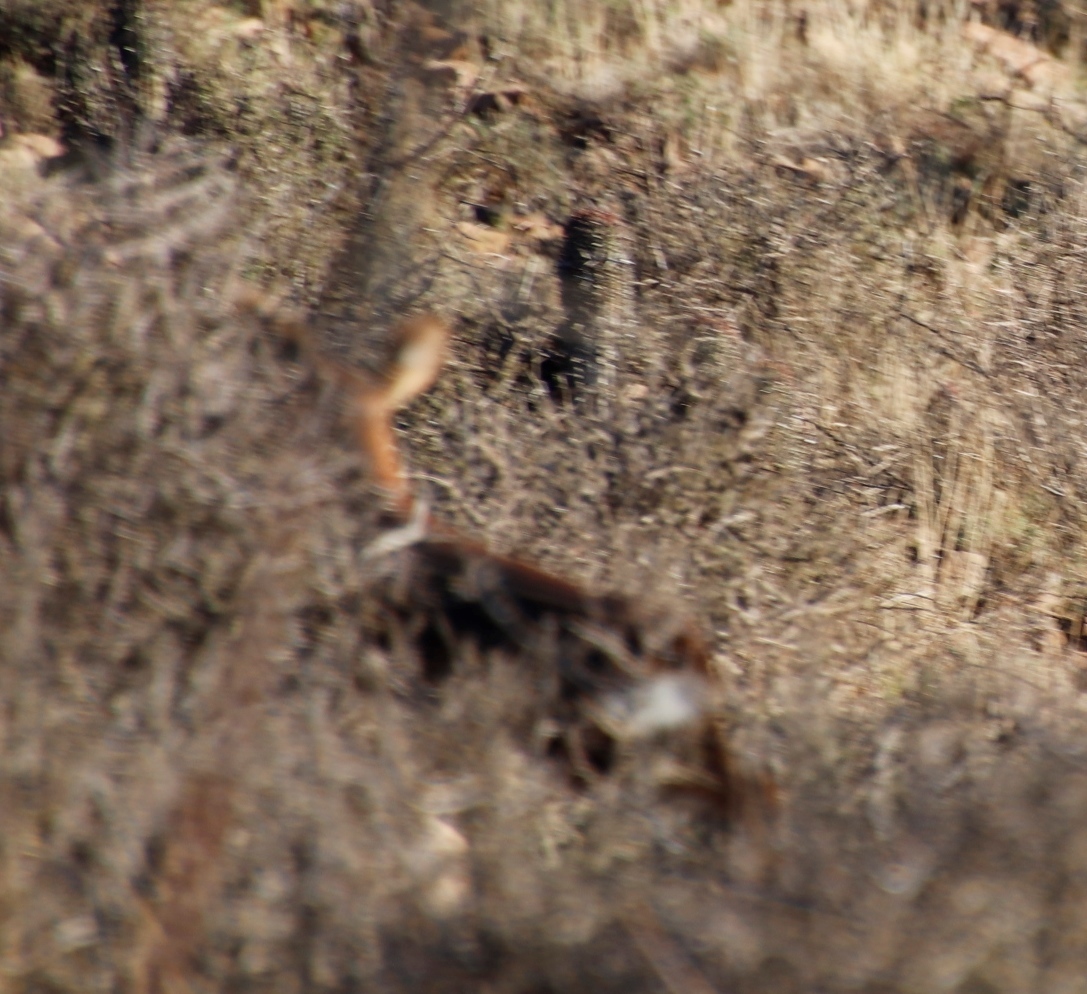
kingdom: Animalia
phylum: Chordata
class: Mammalia
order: Artiodactyla
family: Bovidae
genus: Raphicerus
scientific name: Raphicerus campestris
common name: Steenbok
